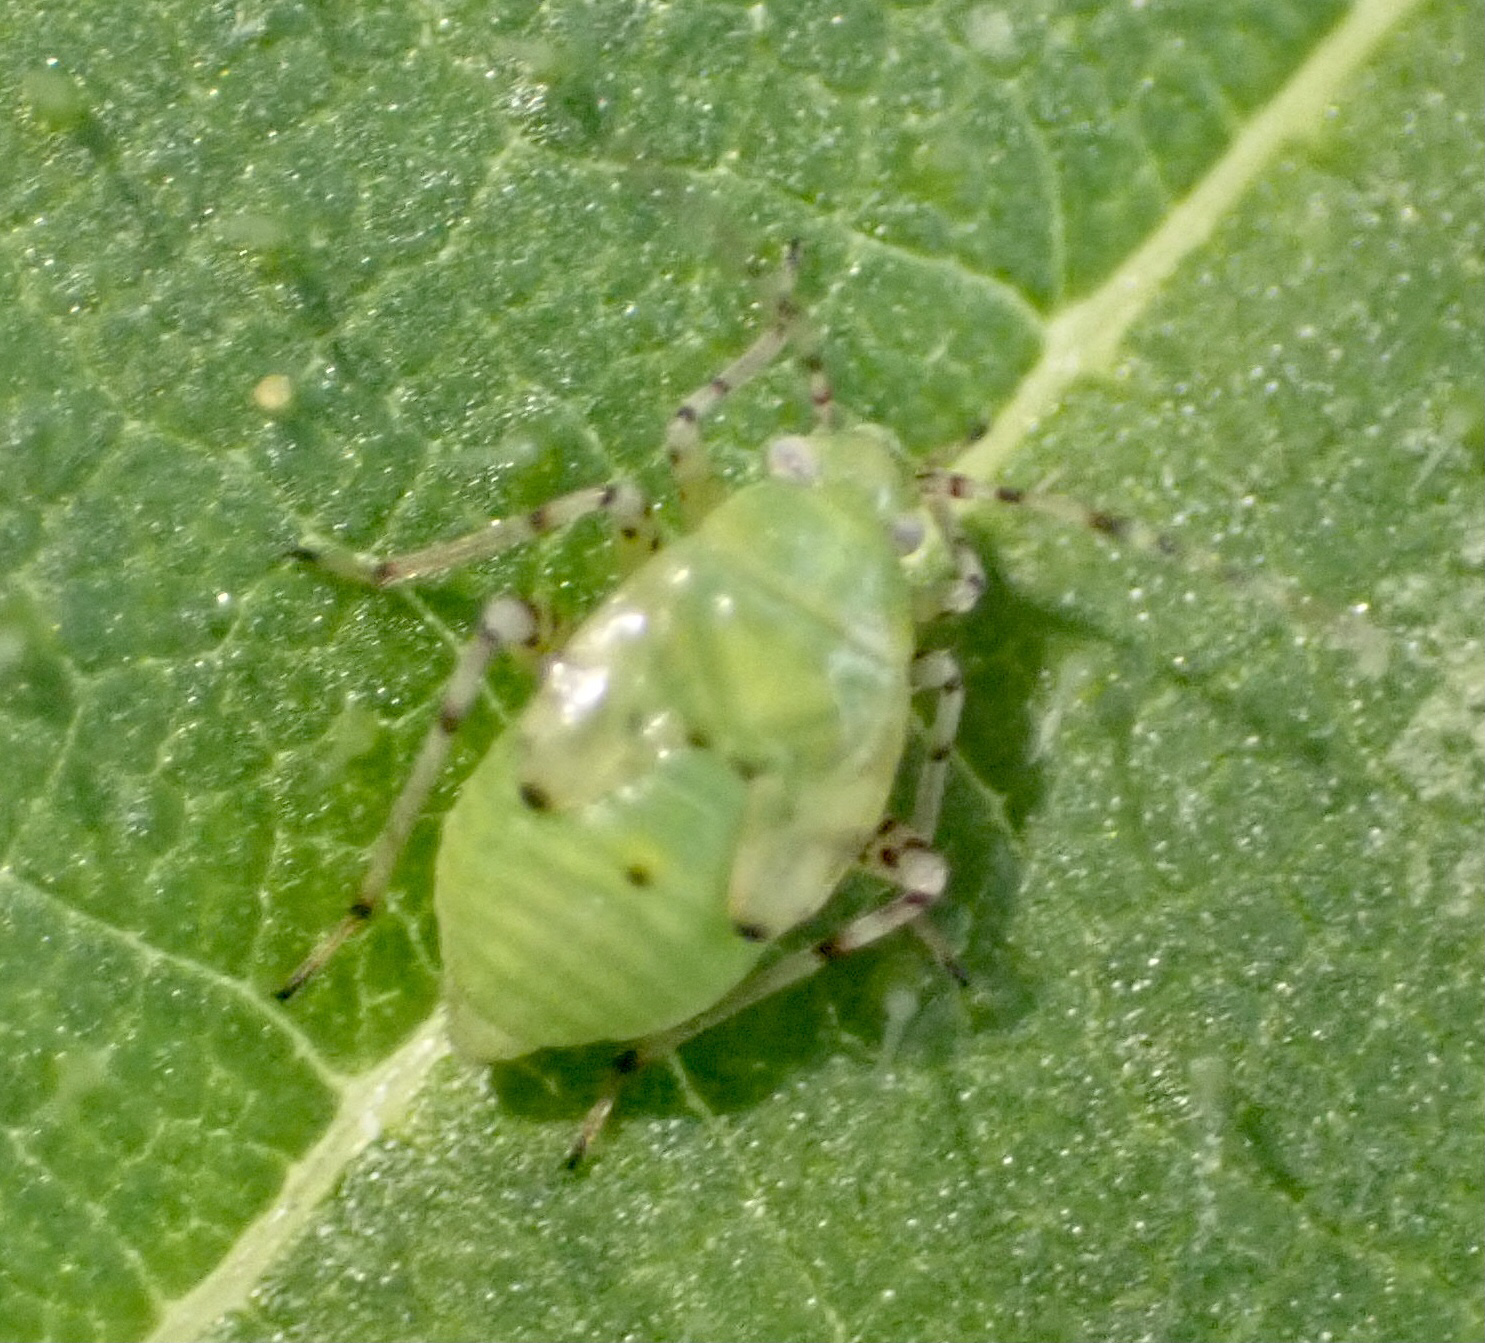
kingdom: Animalia
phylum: Arthropoda
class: Insecta
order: Hemiptera
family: Miridae
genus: Liocoris
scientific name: Liocoris tripustulatus
